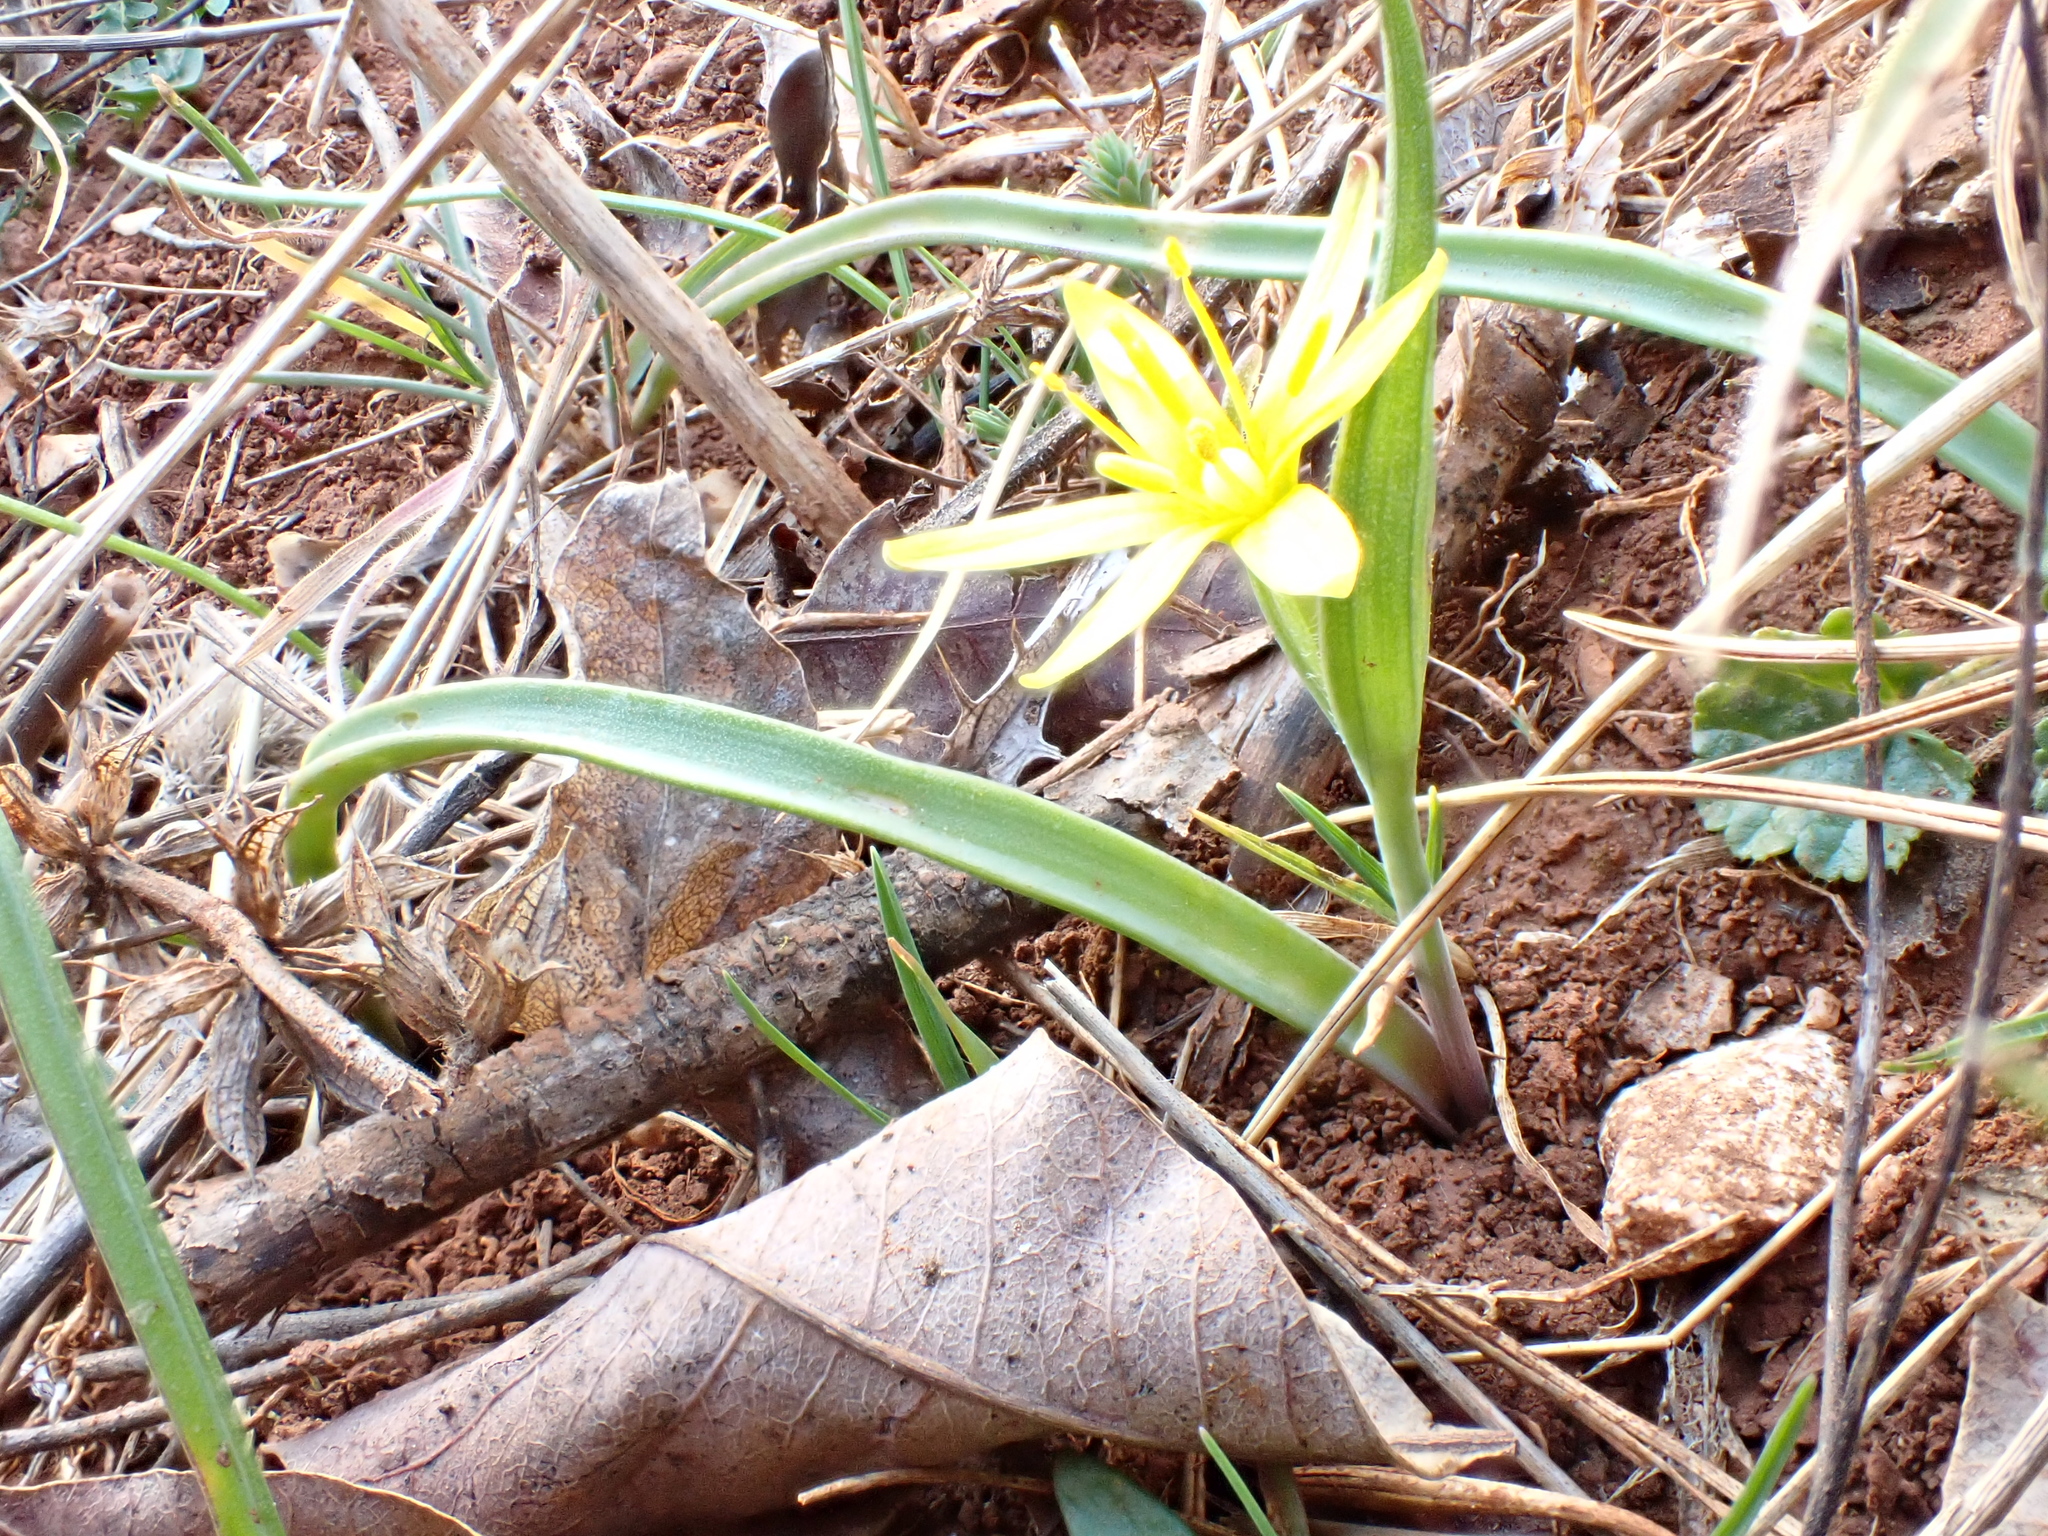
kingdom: Plantae
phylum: Tracheophyta
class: Liliopsida
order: Liliales
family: Liliaceae
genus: Gagea
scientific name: Gagea pratensis
